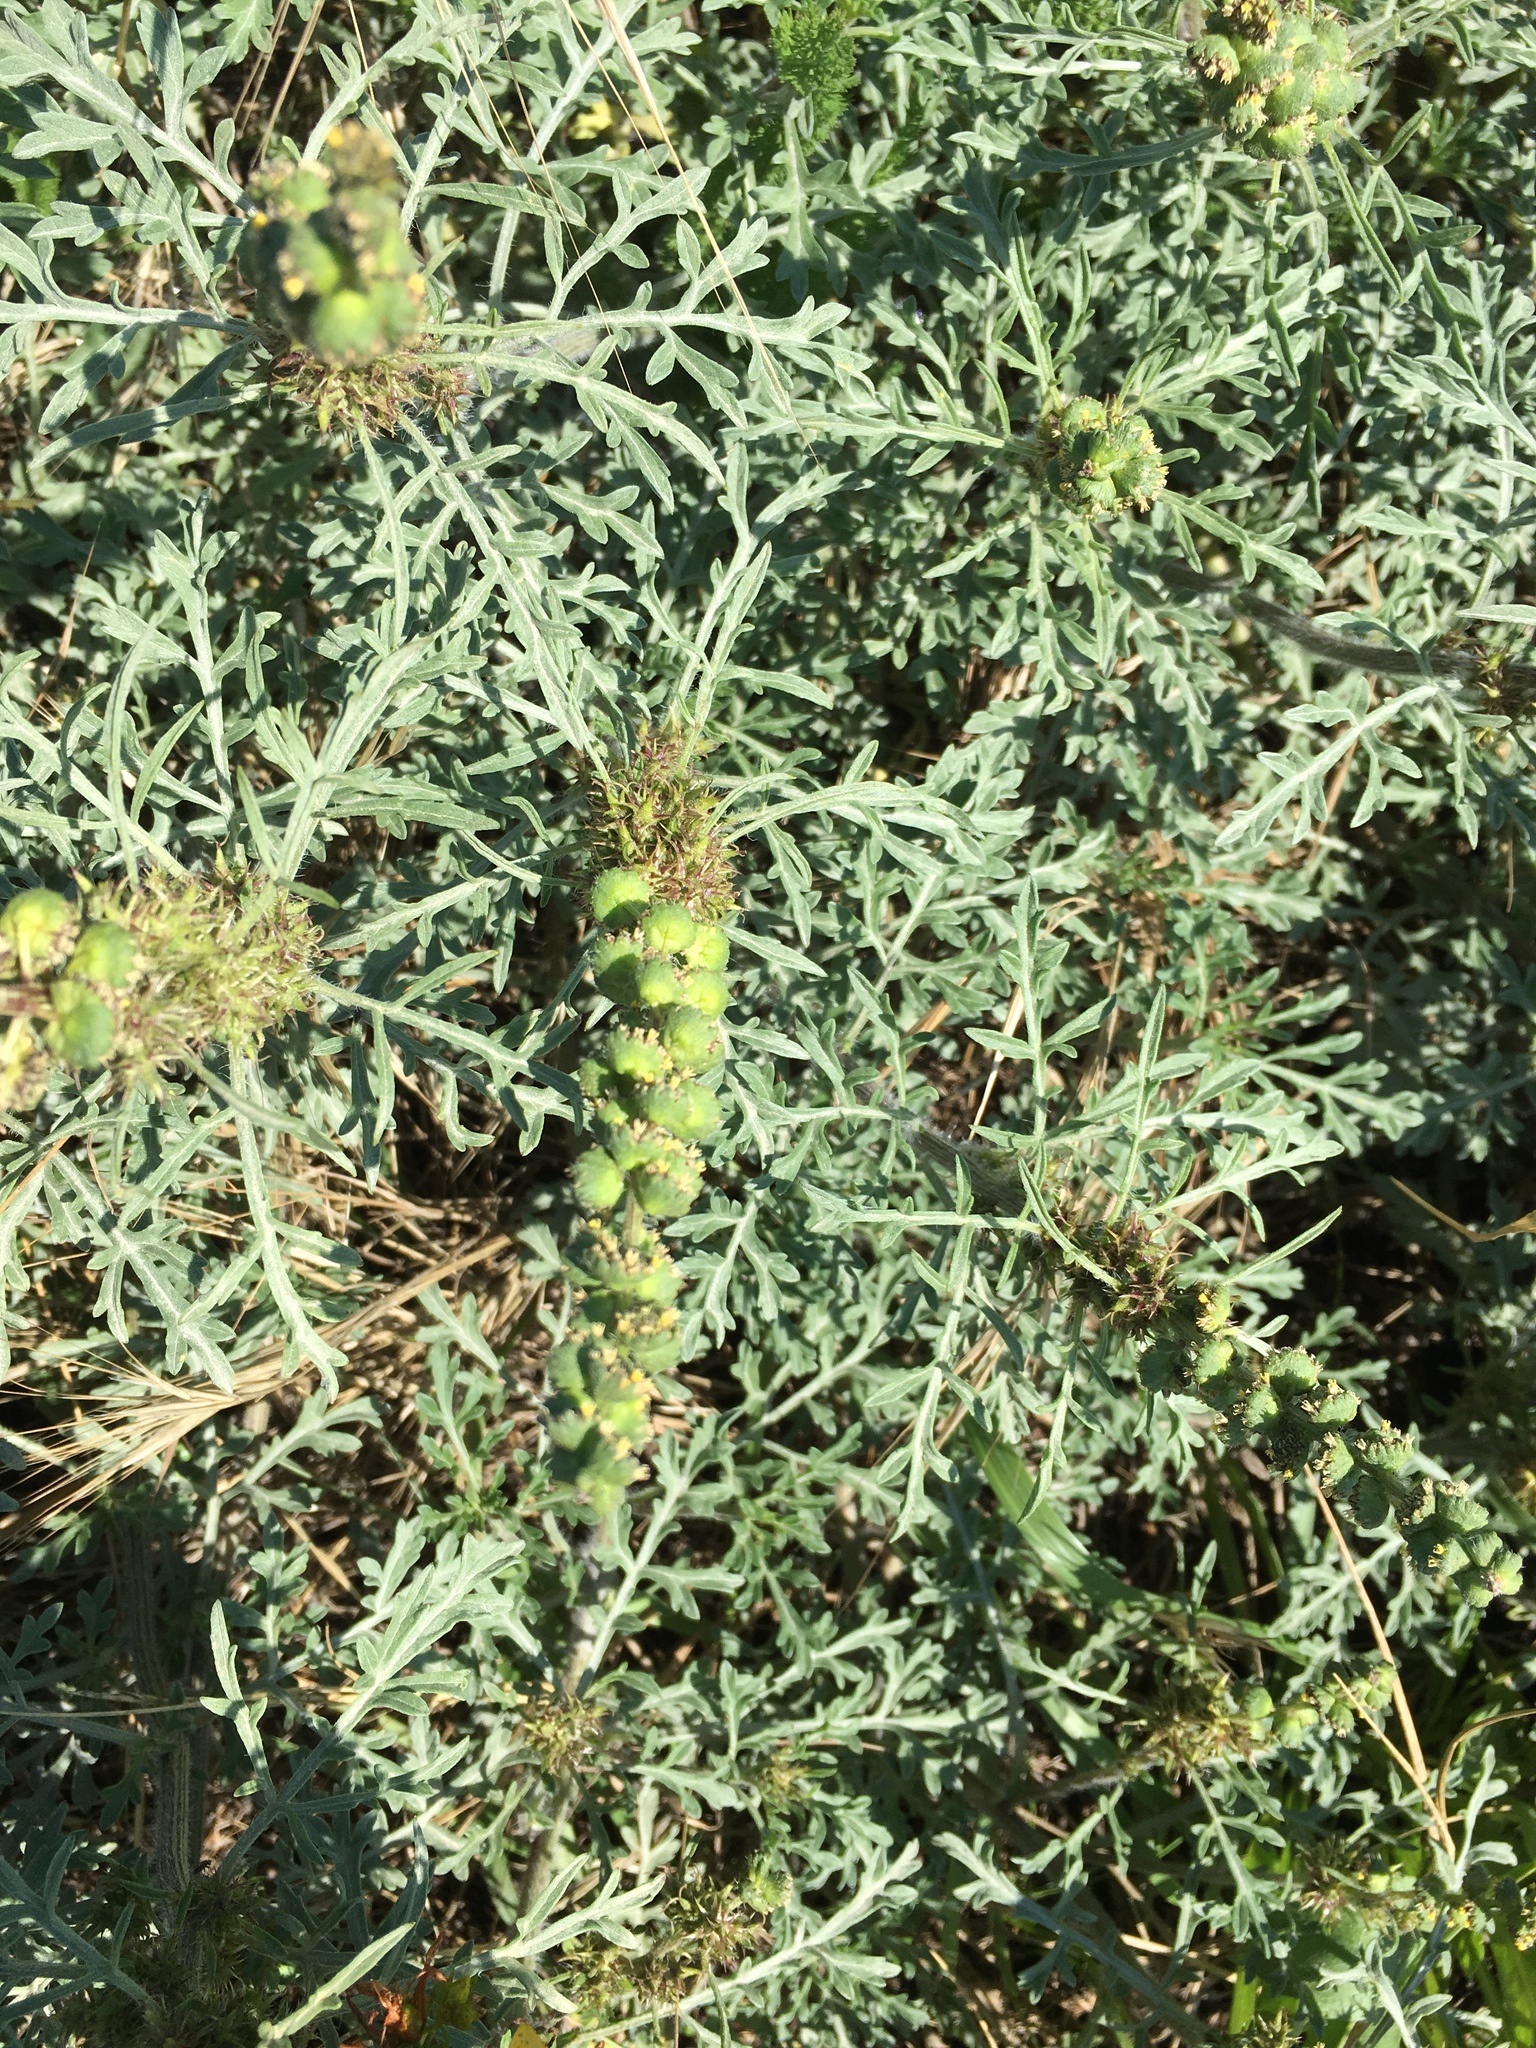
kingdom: Plantae
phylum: Tracheophyta
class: Magnoliopsida
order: Asterales
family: Asteraceae
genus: Ambrosia
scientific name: Ambrosia chamissonis
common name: Beachbur
